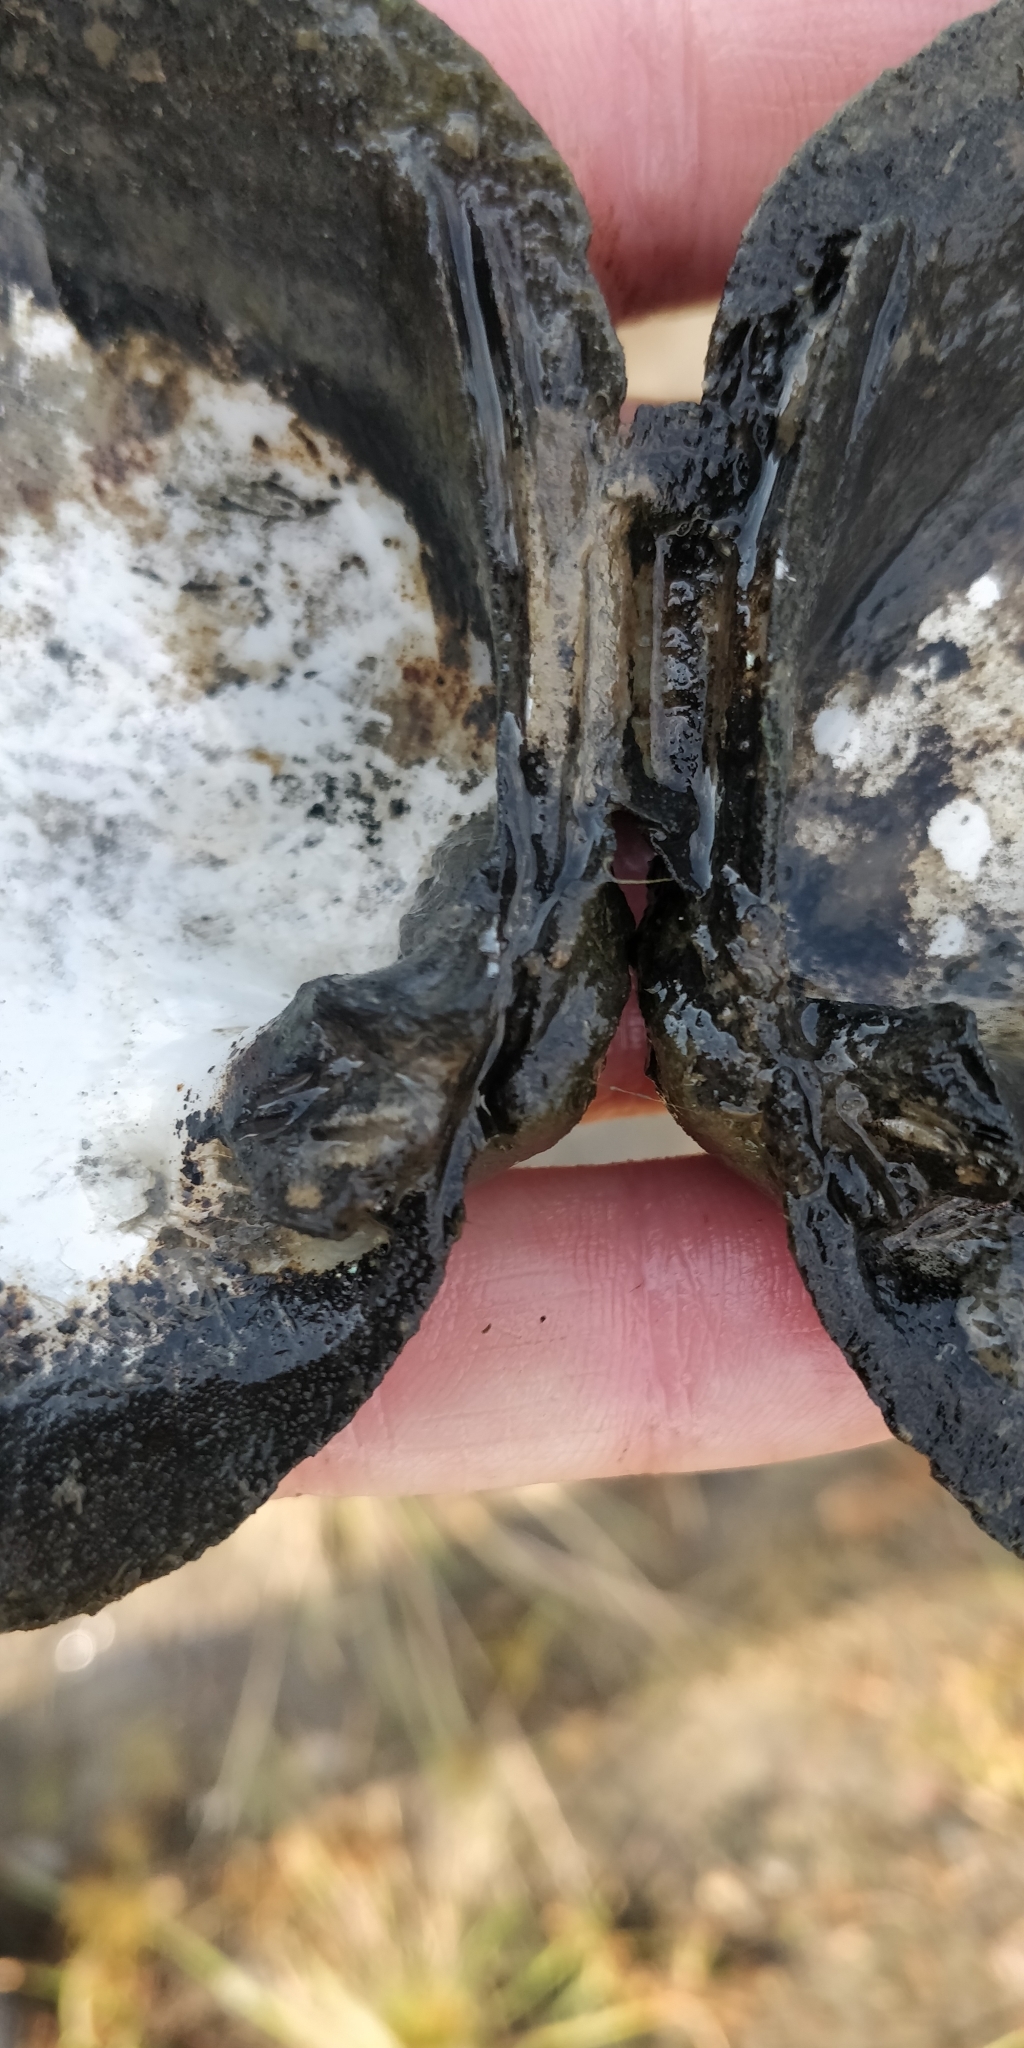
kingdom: Animalia
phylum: Mollusca
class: Bivalvia
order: Unionida
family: Unionidae
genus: Quadrula
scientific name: Quadrula quadrula
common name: Mapleleaf
